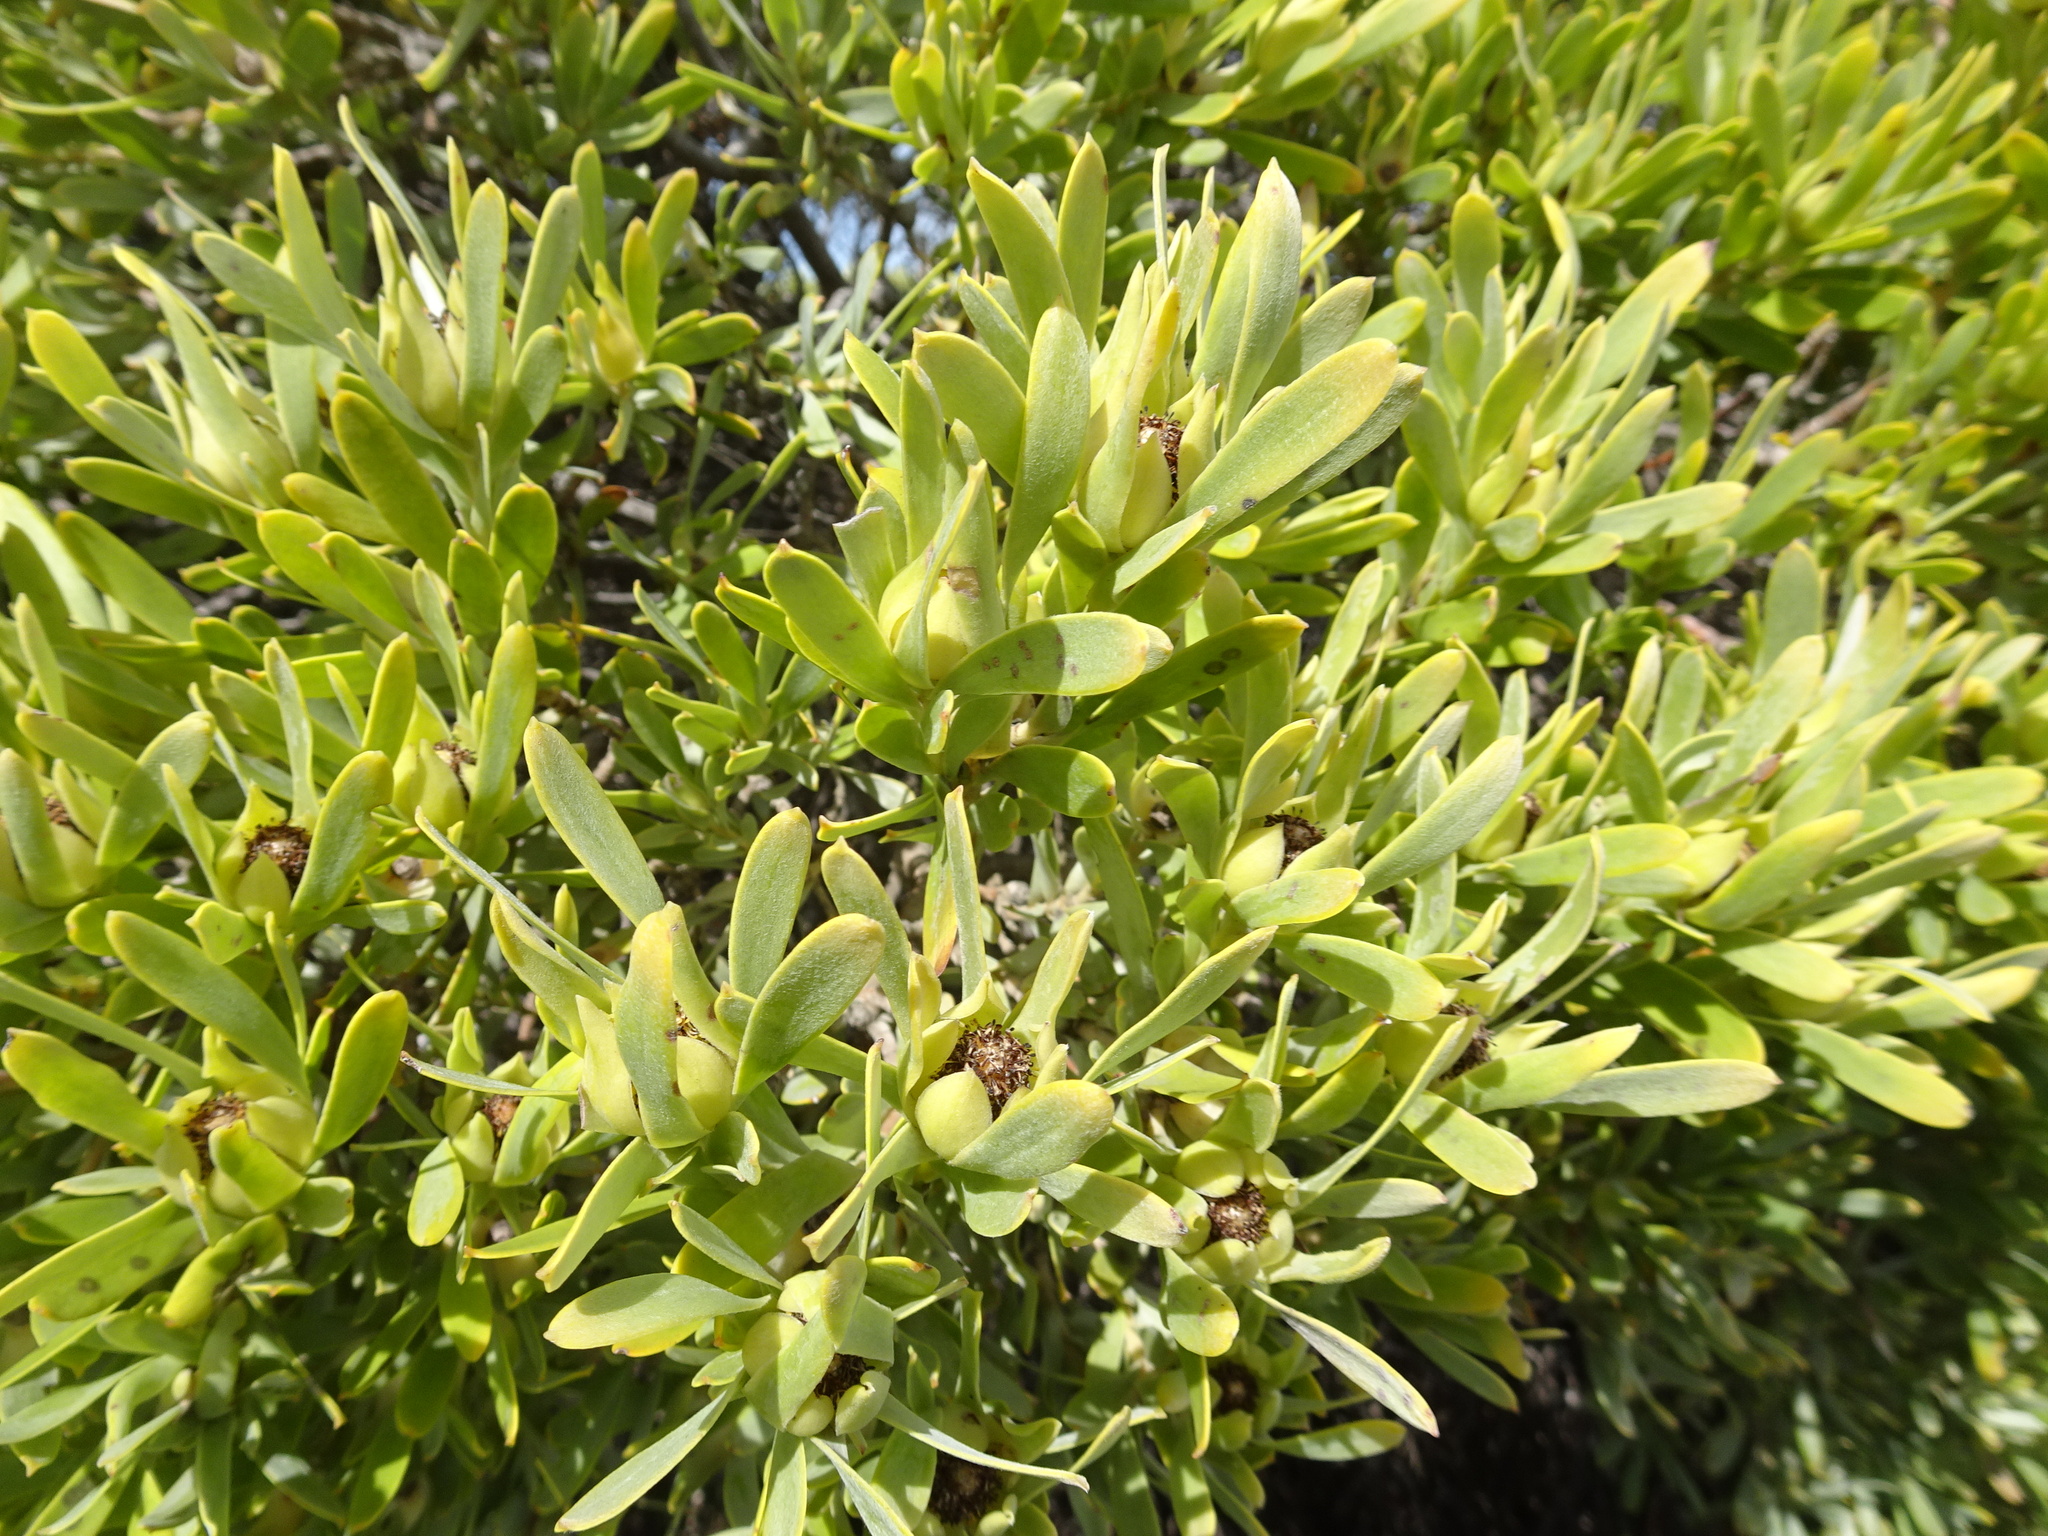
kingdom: Plantae
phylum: Tracheophyta
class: Magnoliopsida
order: Proteales
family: Proteaceae
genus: Leucadendron
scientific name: Leucadendron meridianum
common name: Limestone conebush
